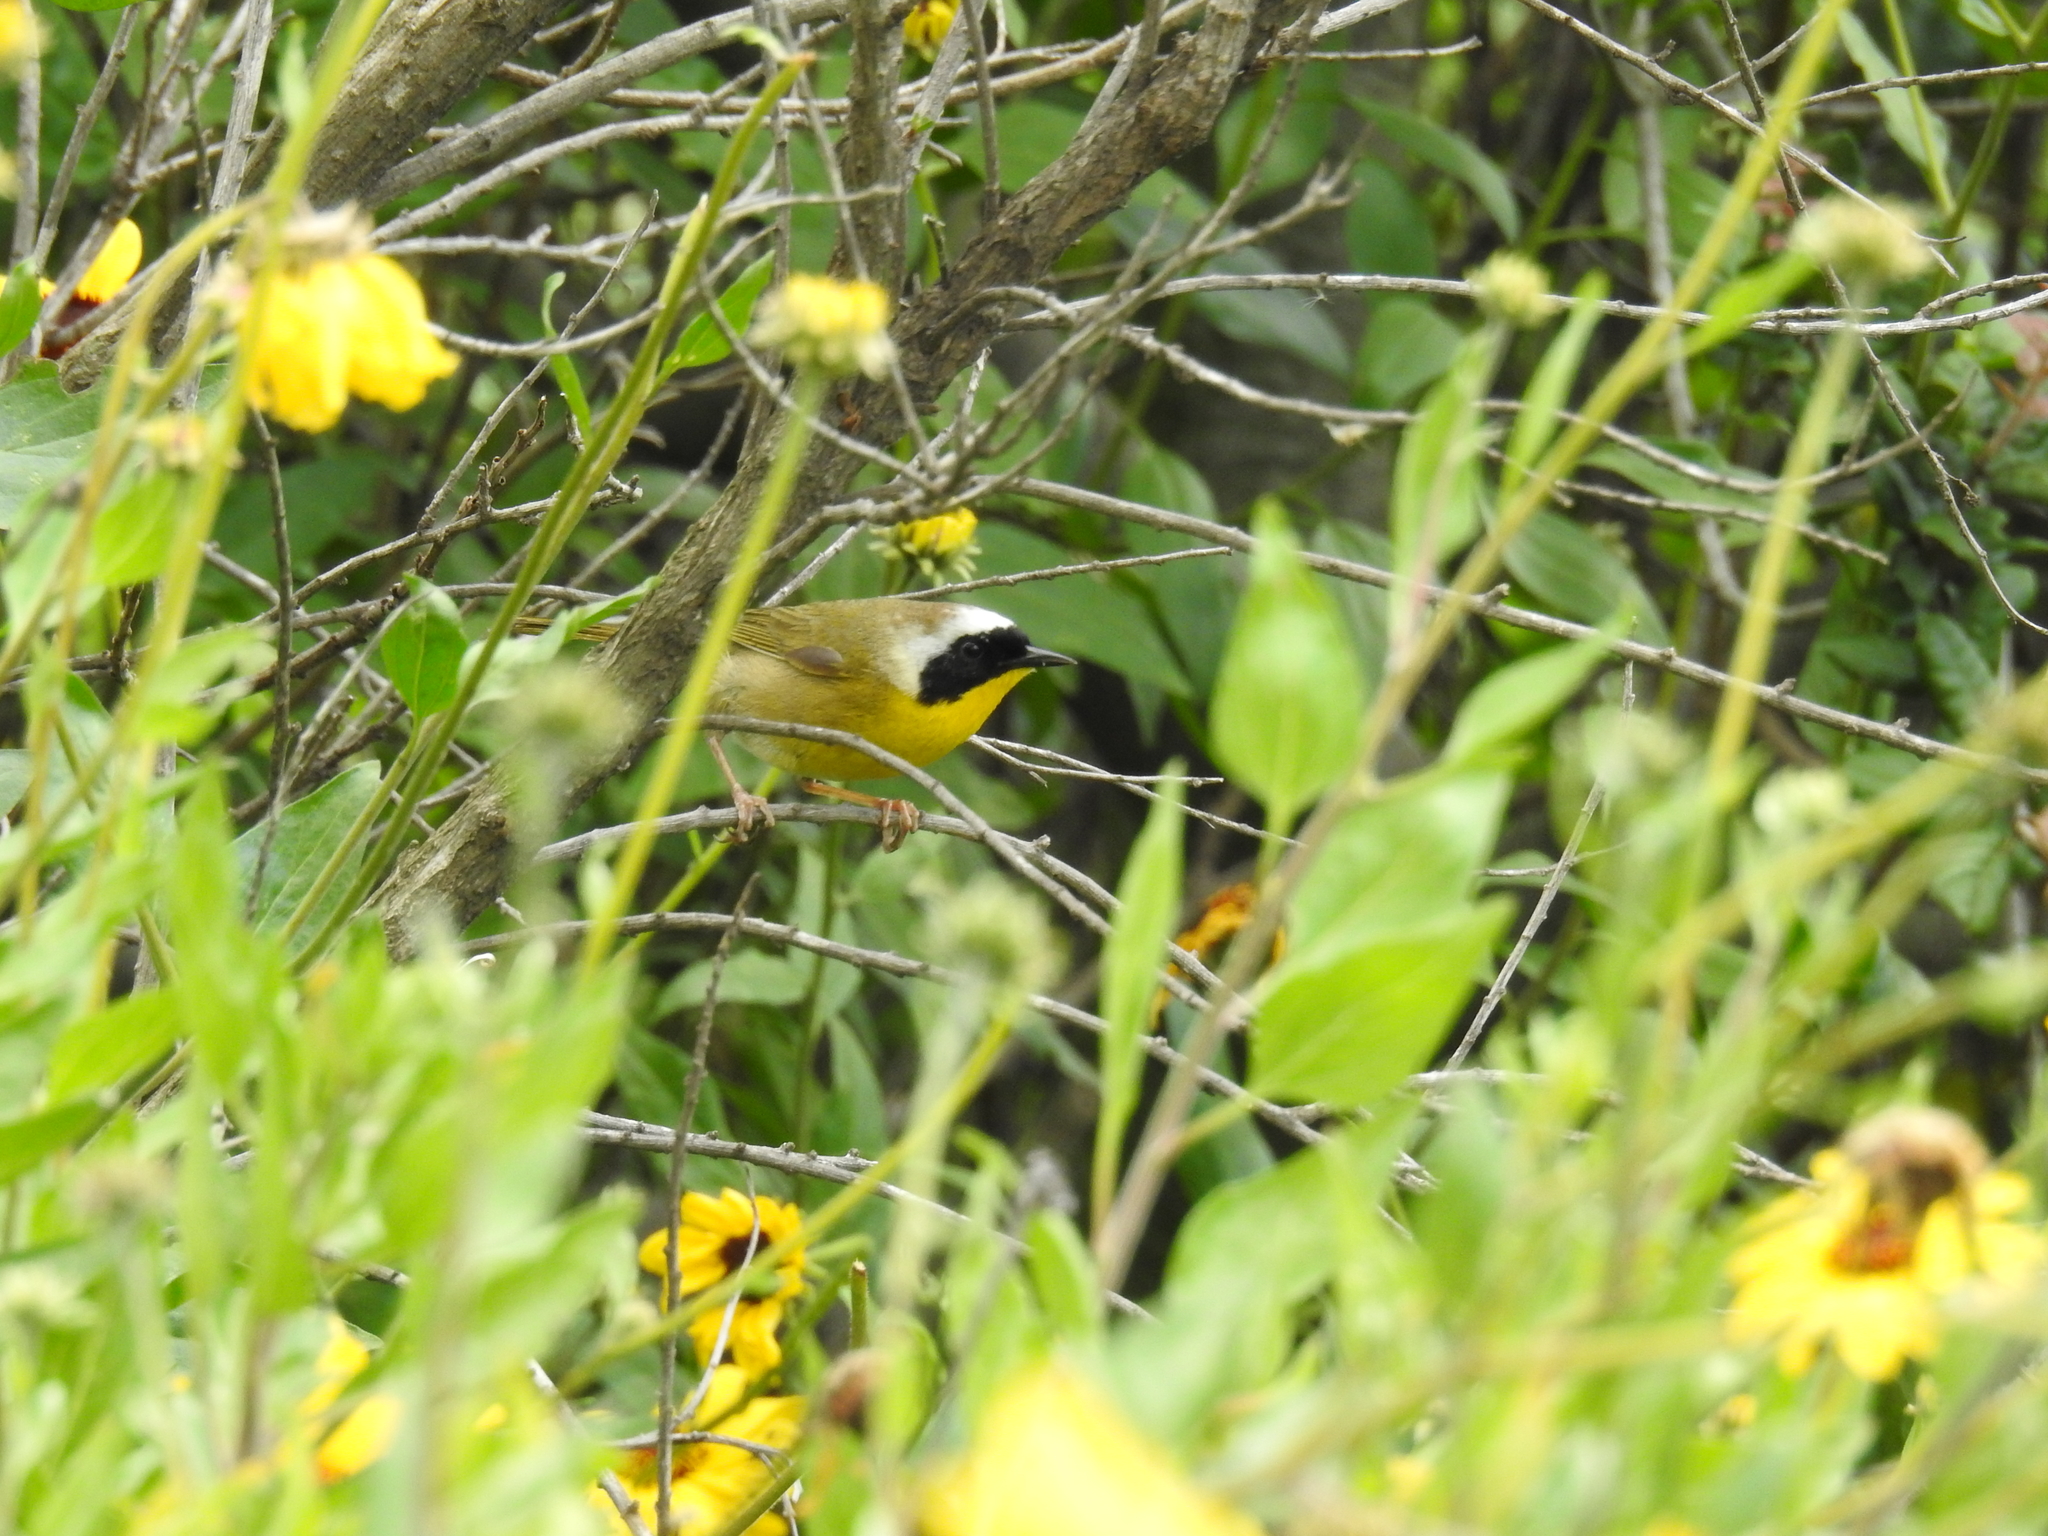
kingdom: Animalia
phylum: Chordata
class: Aves
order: Passeriformes
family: Parulidae
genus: Geothlypis
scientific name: Geothlypis trichas
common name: Common yellowthroat
